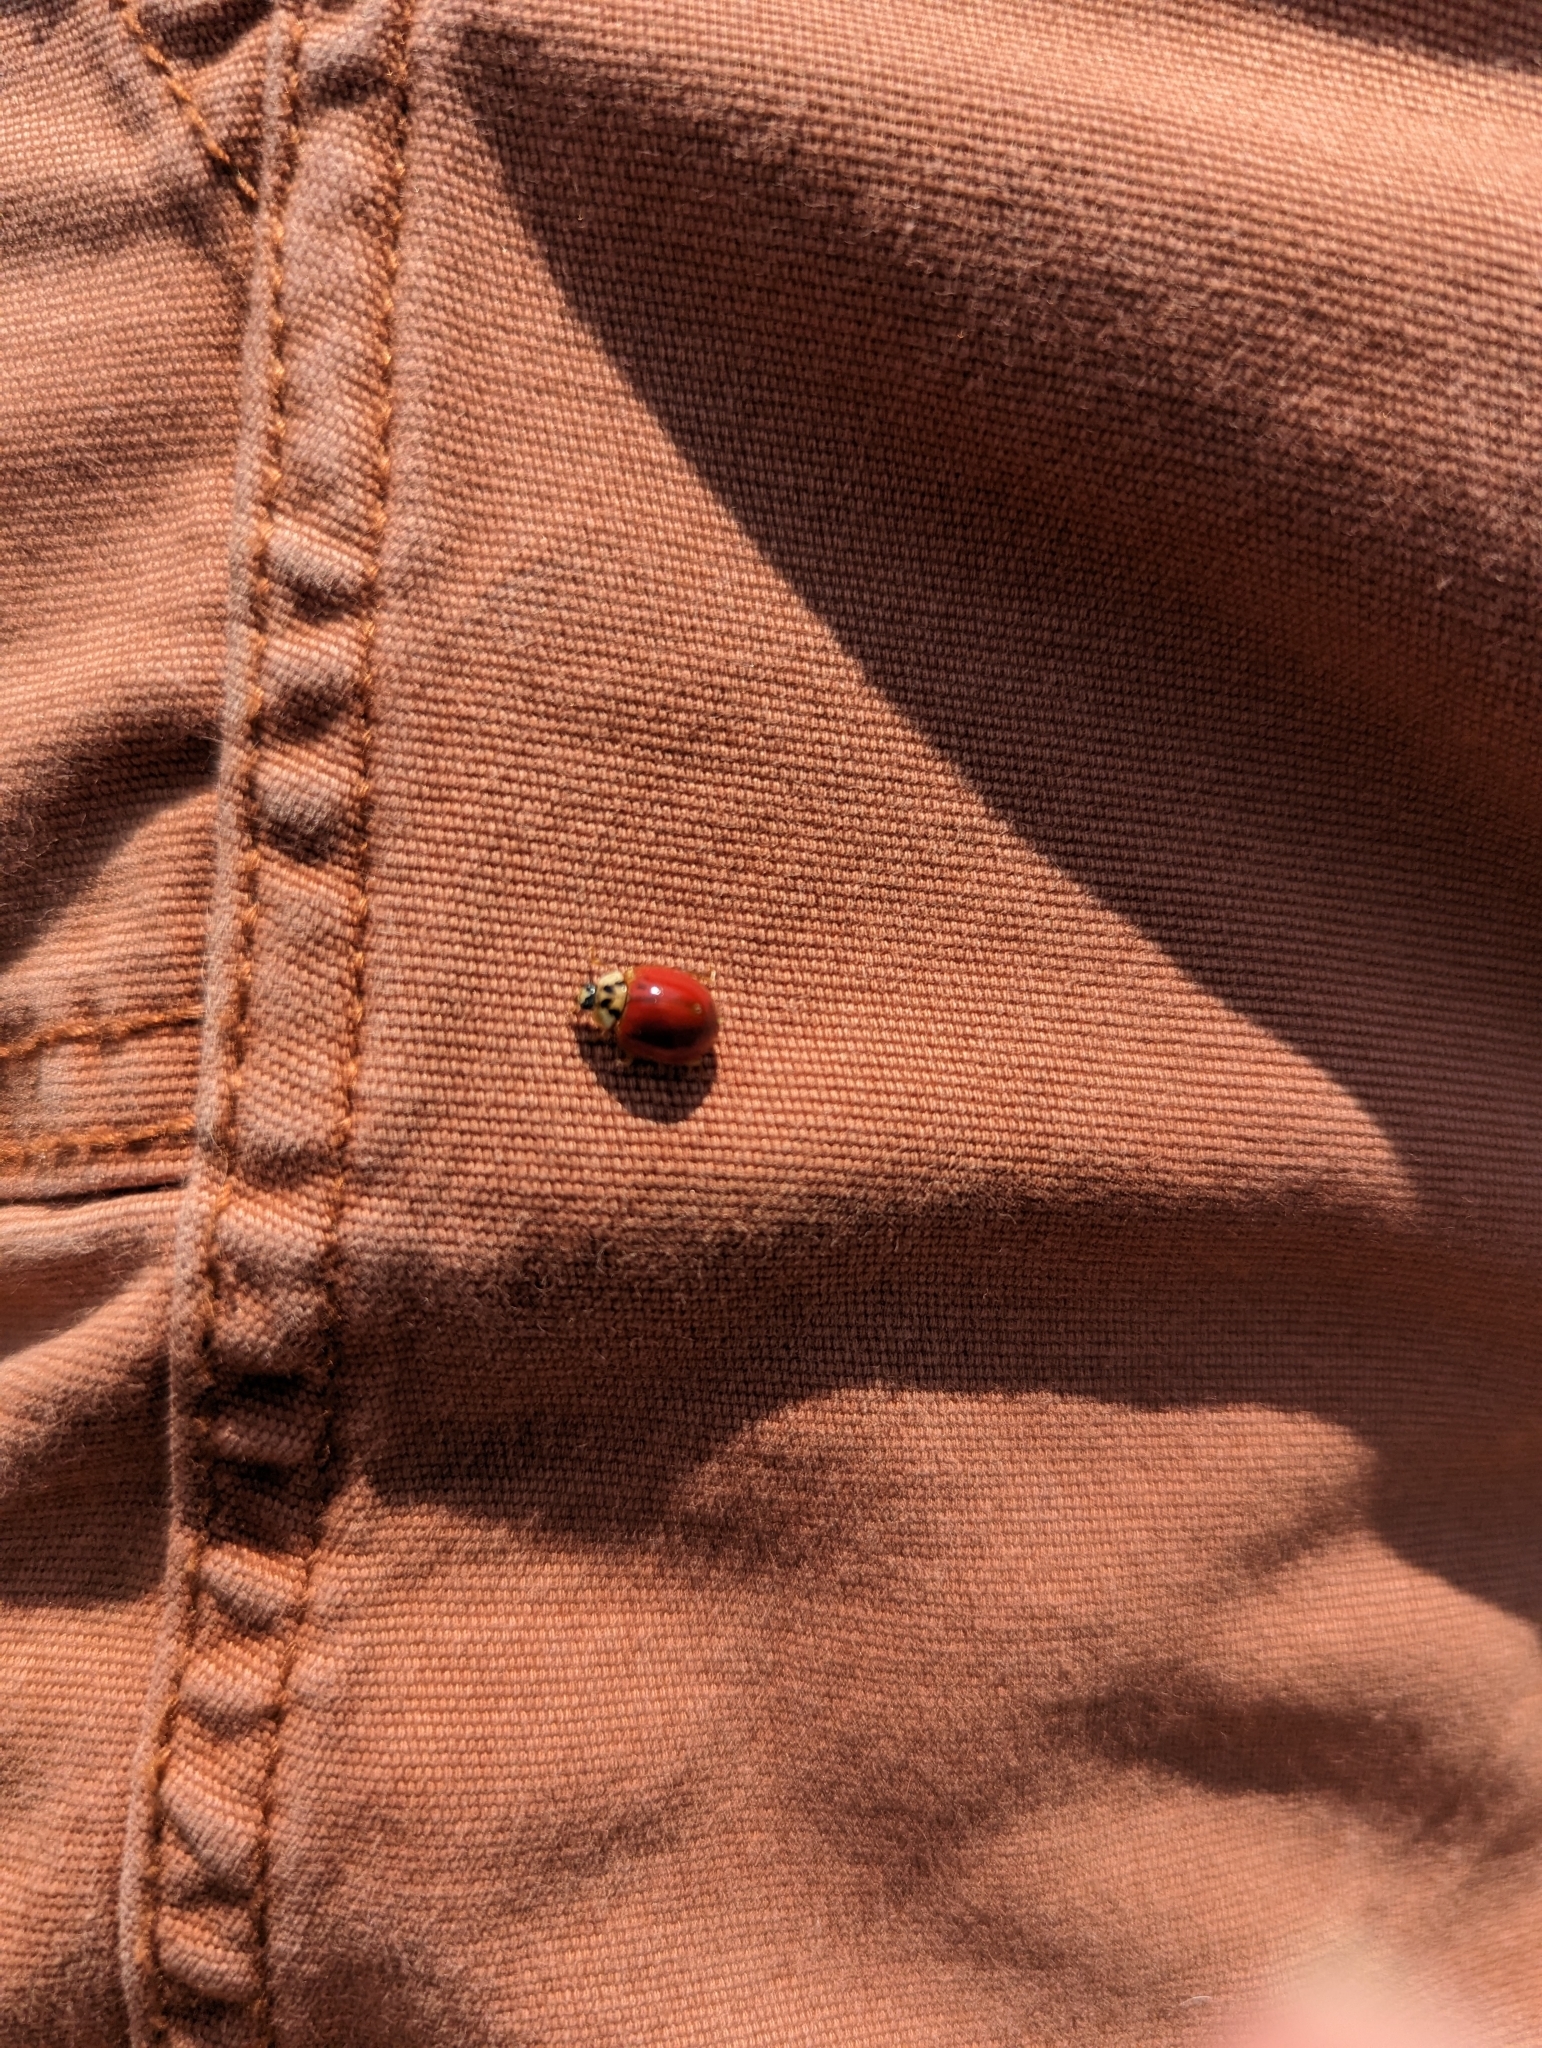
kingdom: Animalia
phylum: Arthropoda
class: Insecta
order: Coleoptera
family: Coccinellidae
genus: Harmonia
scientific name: Harmonia axyridis
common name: Harlequin ladybird
